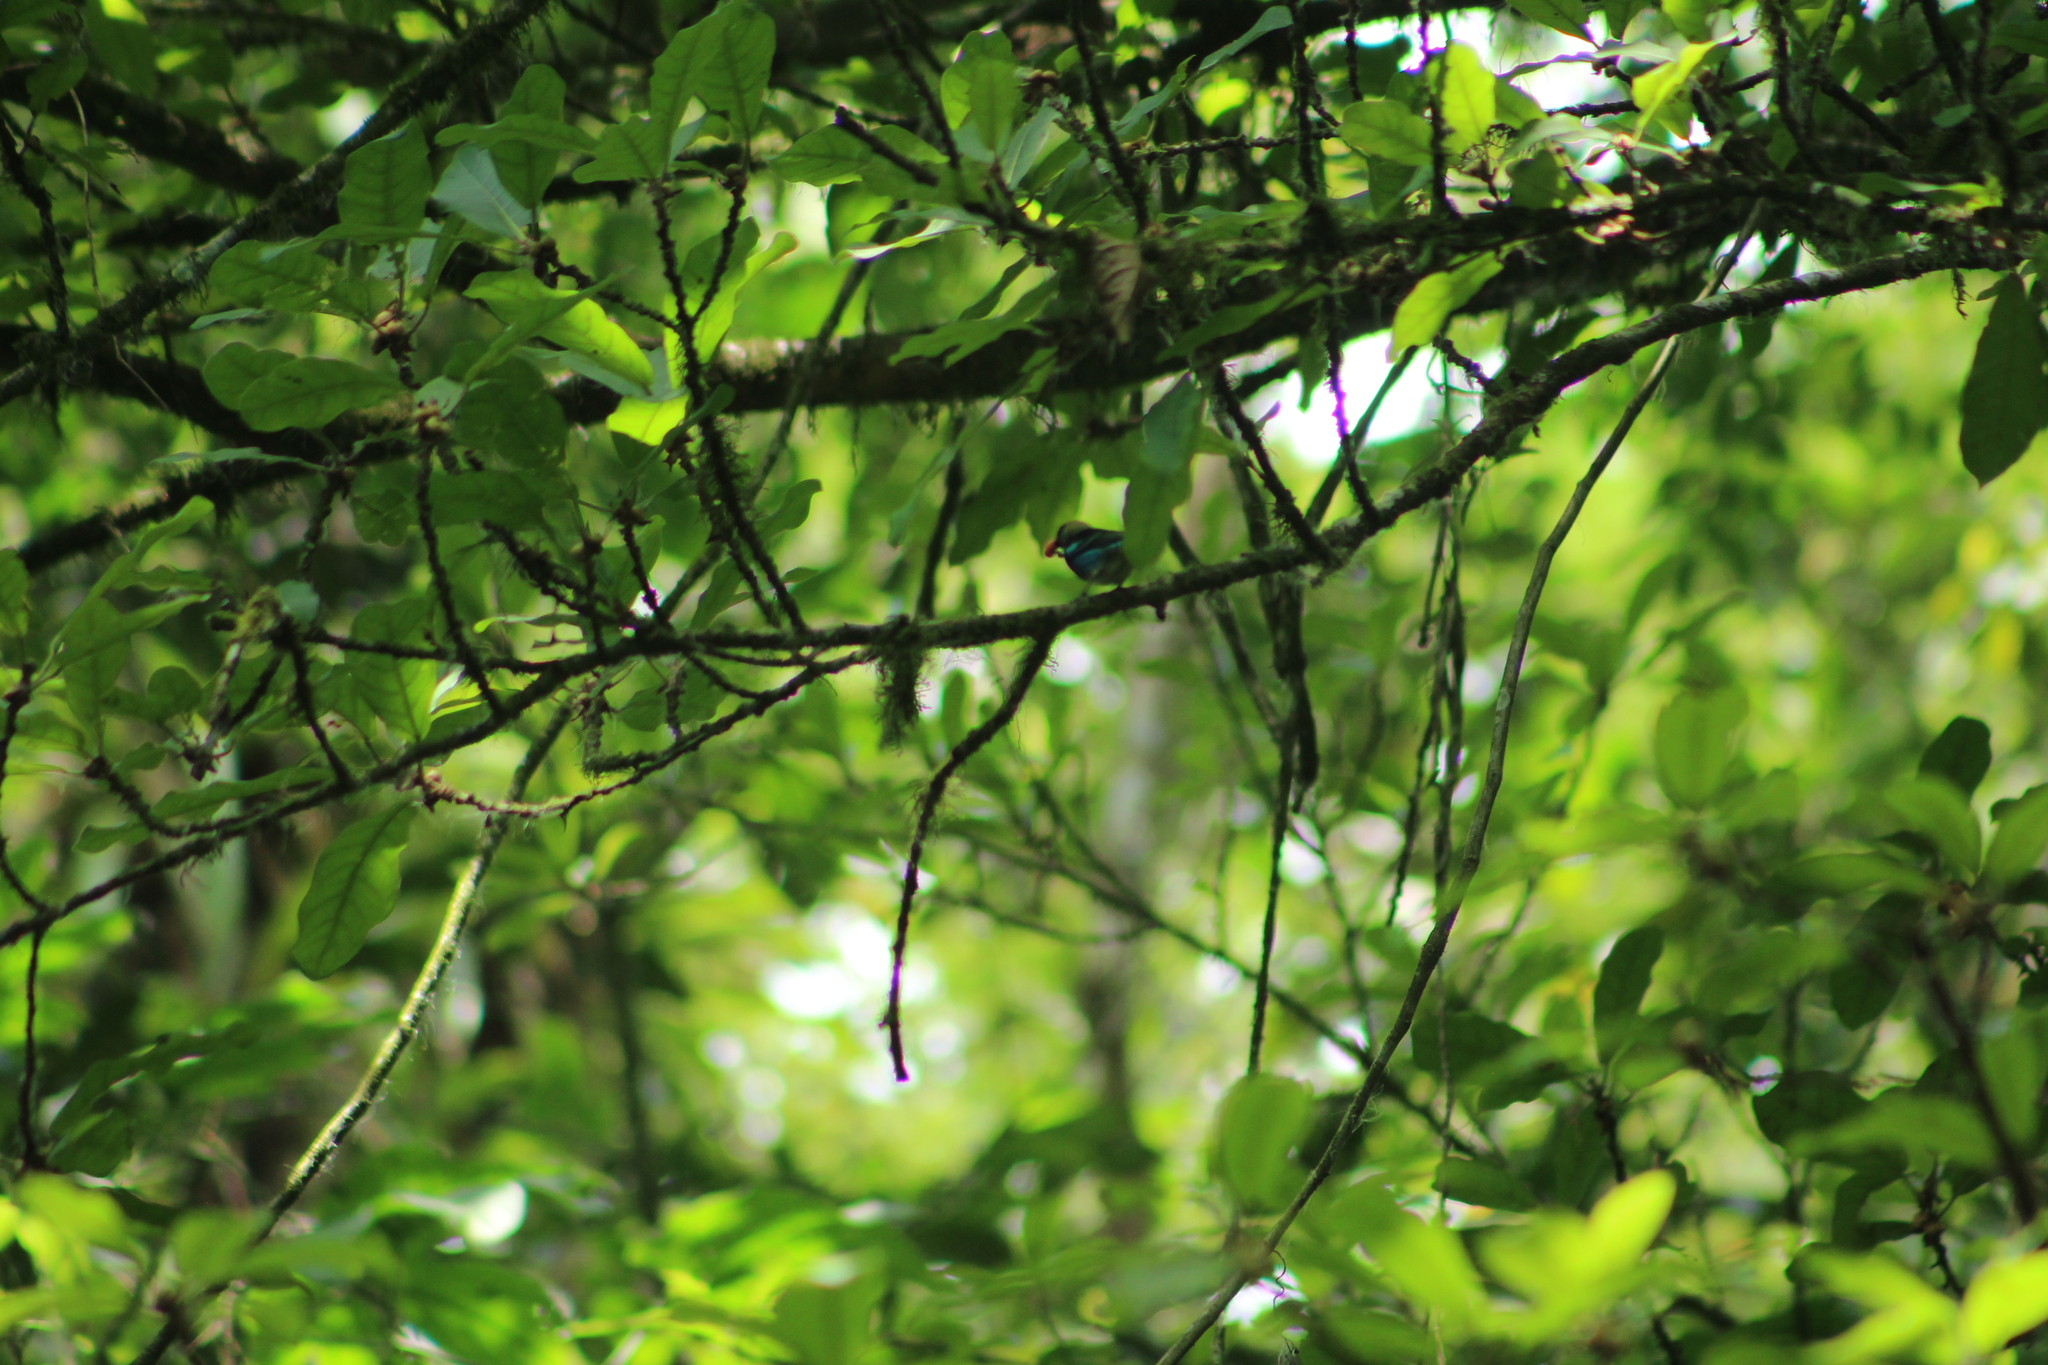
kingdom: Animalia
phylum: Chordata
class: Aves
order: Passeriformes
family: Thraupidae
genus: Stilpnia
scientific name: Stilpnia larvata
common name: Golden-hooded tanager
